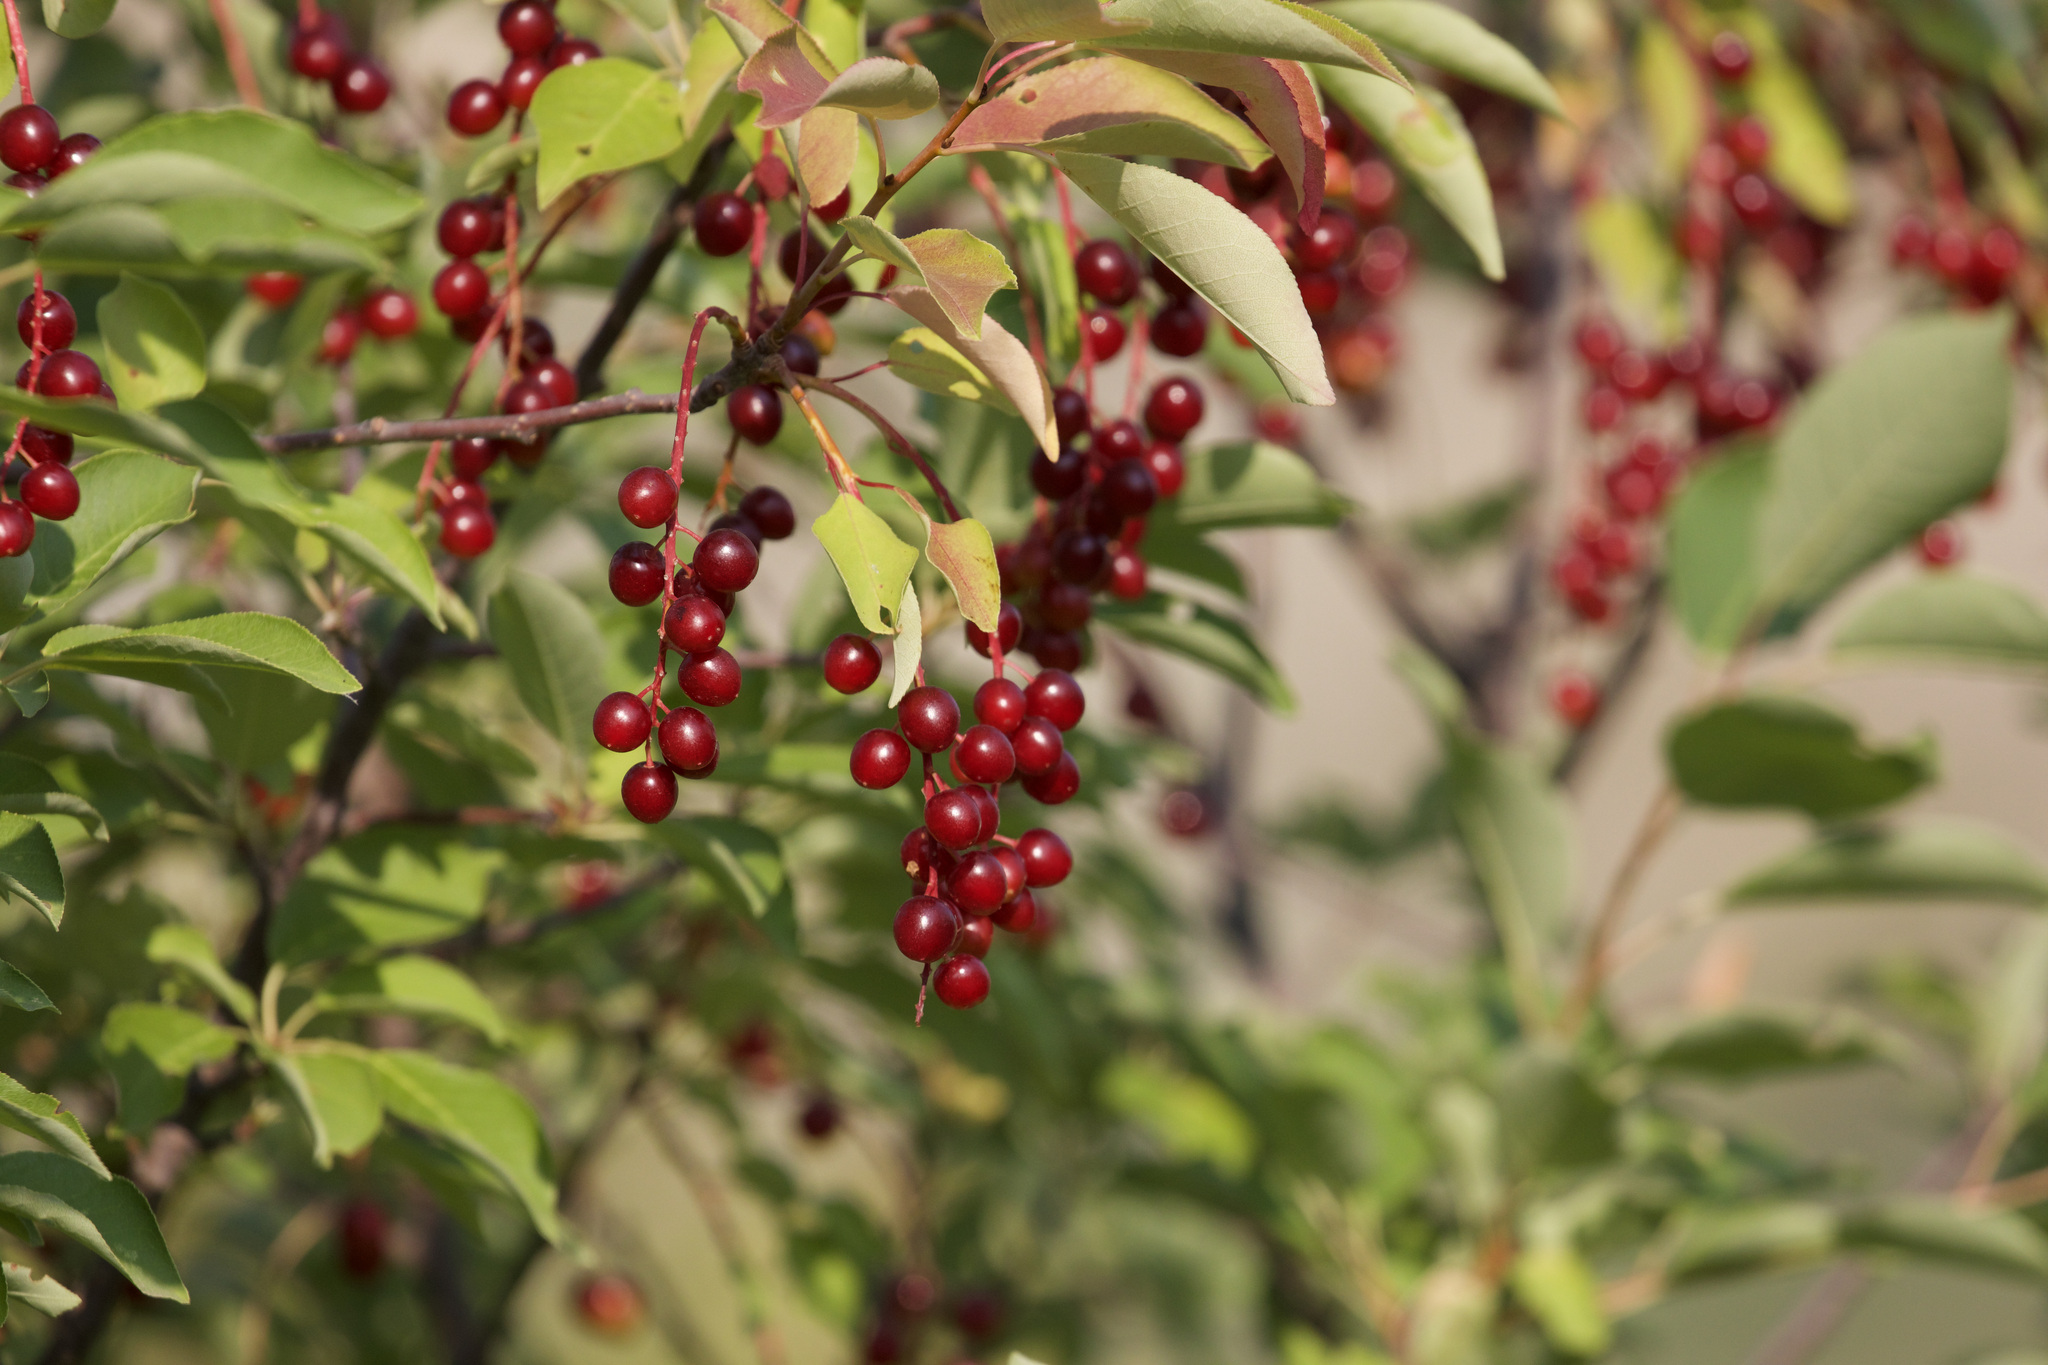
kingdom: Plantae
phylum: Tracheophyta
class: Magnoliopsida
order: Rosales
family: Rosaceae
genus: Prunus
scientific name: Prunus virginiana
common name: Chokecherry
